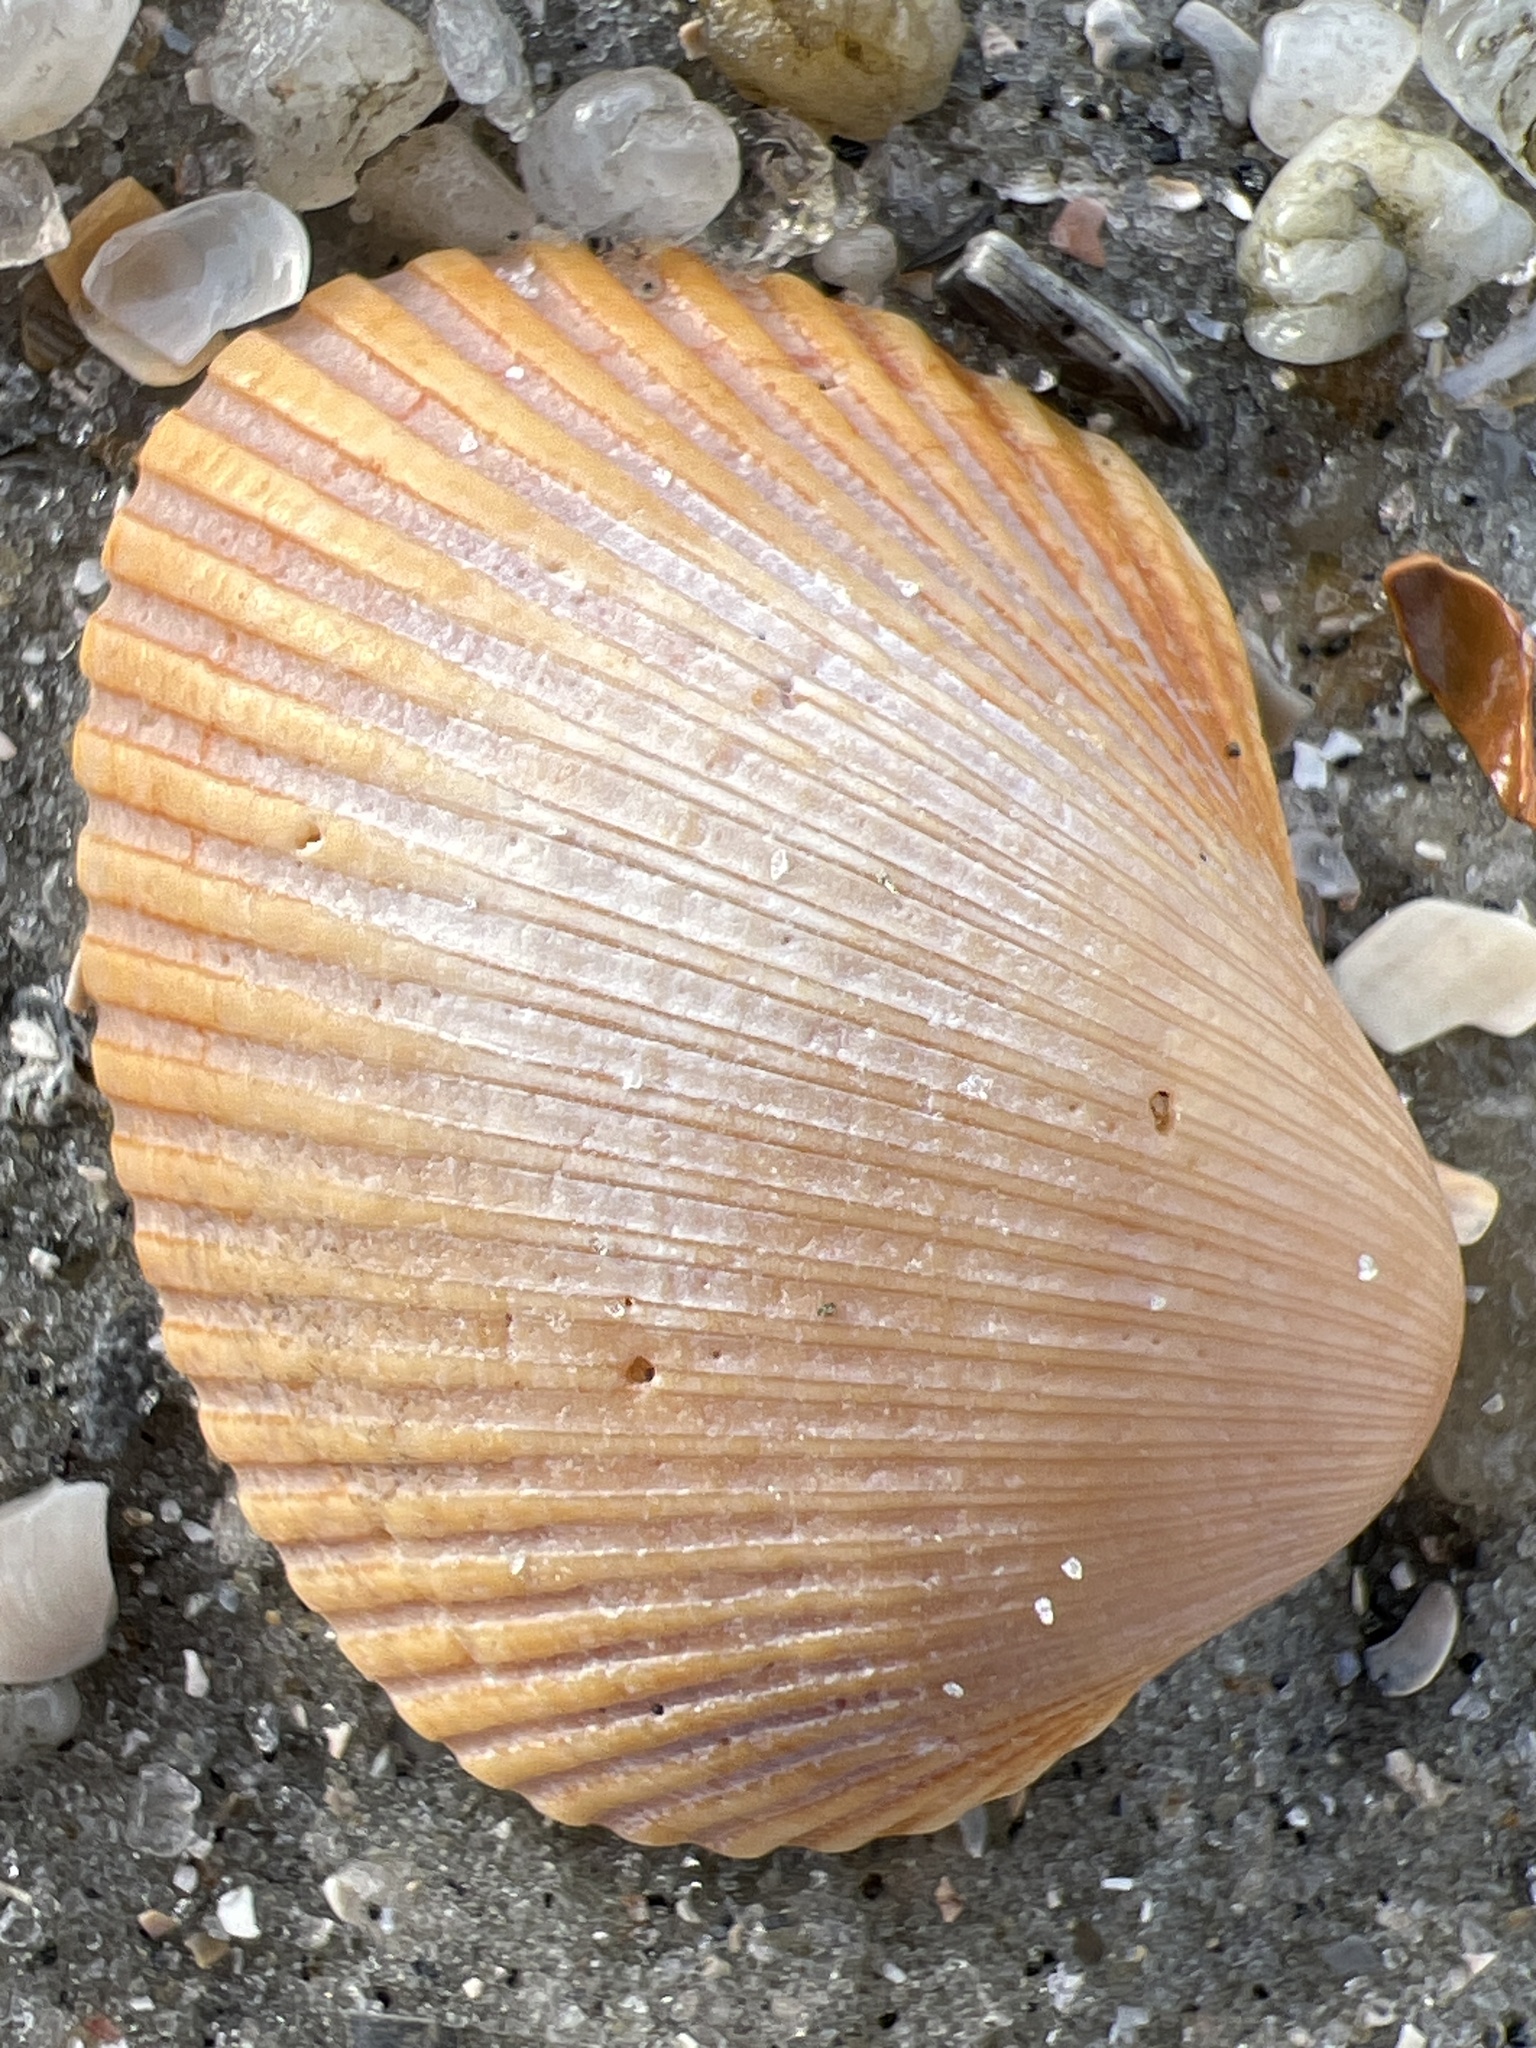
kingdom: Animalia
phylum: Mollusca
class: Bivalvia
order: Arcida
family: Arcidae
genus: Lunarca
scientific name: Lunarca ovalis
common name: Blood ark
